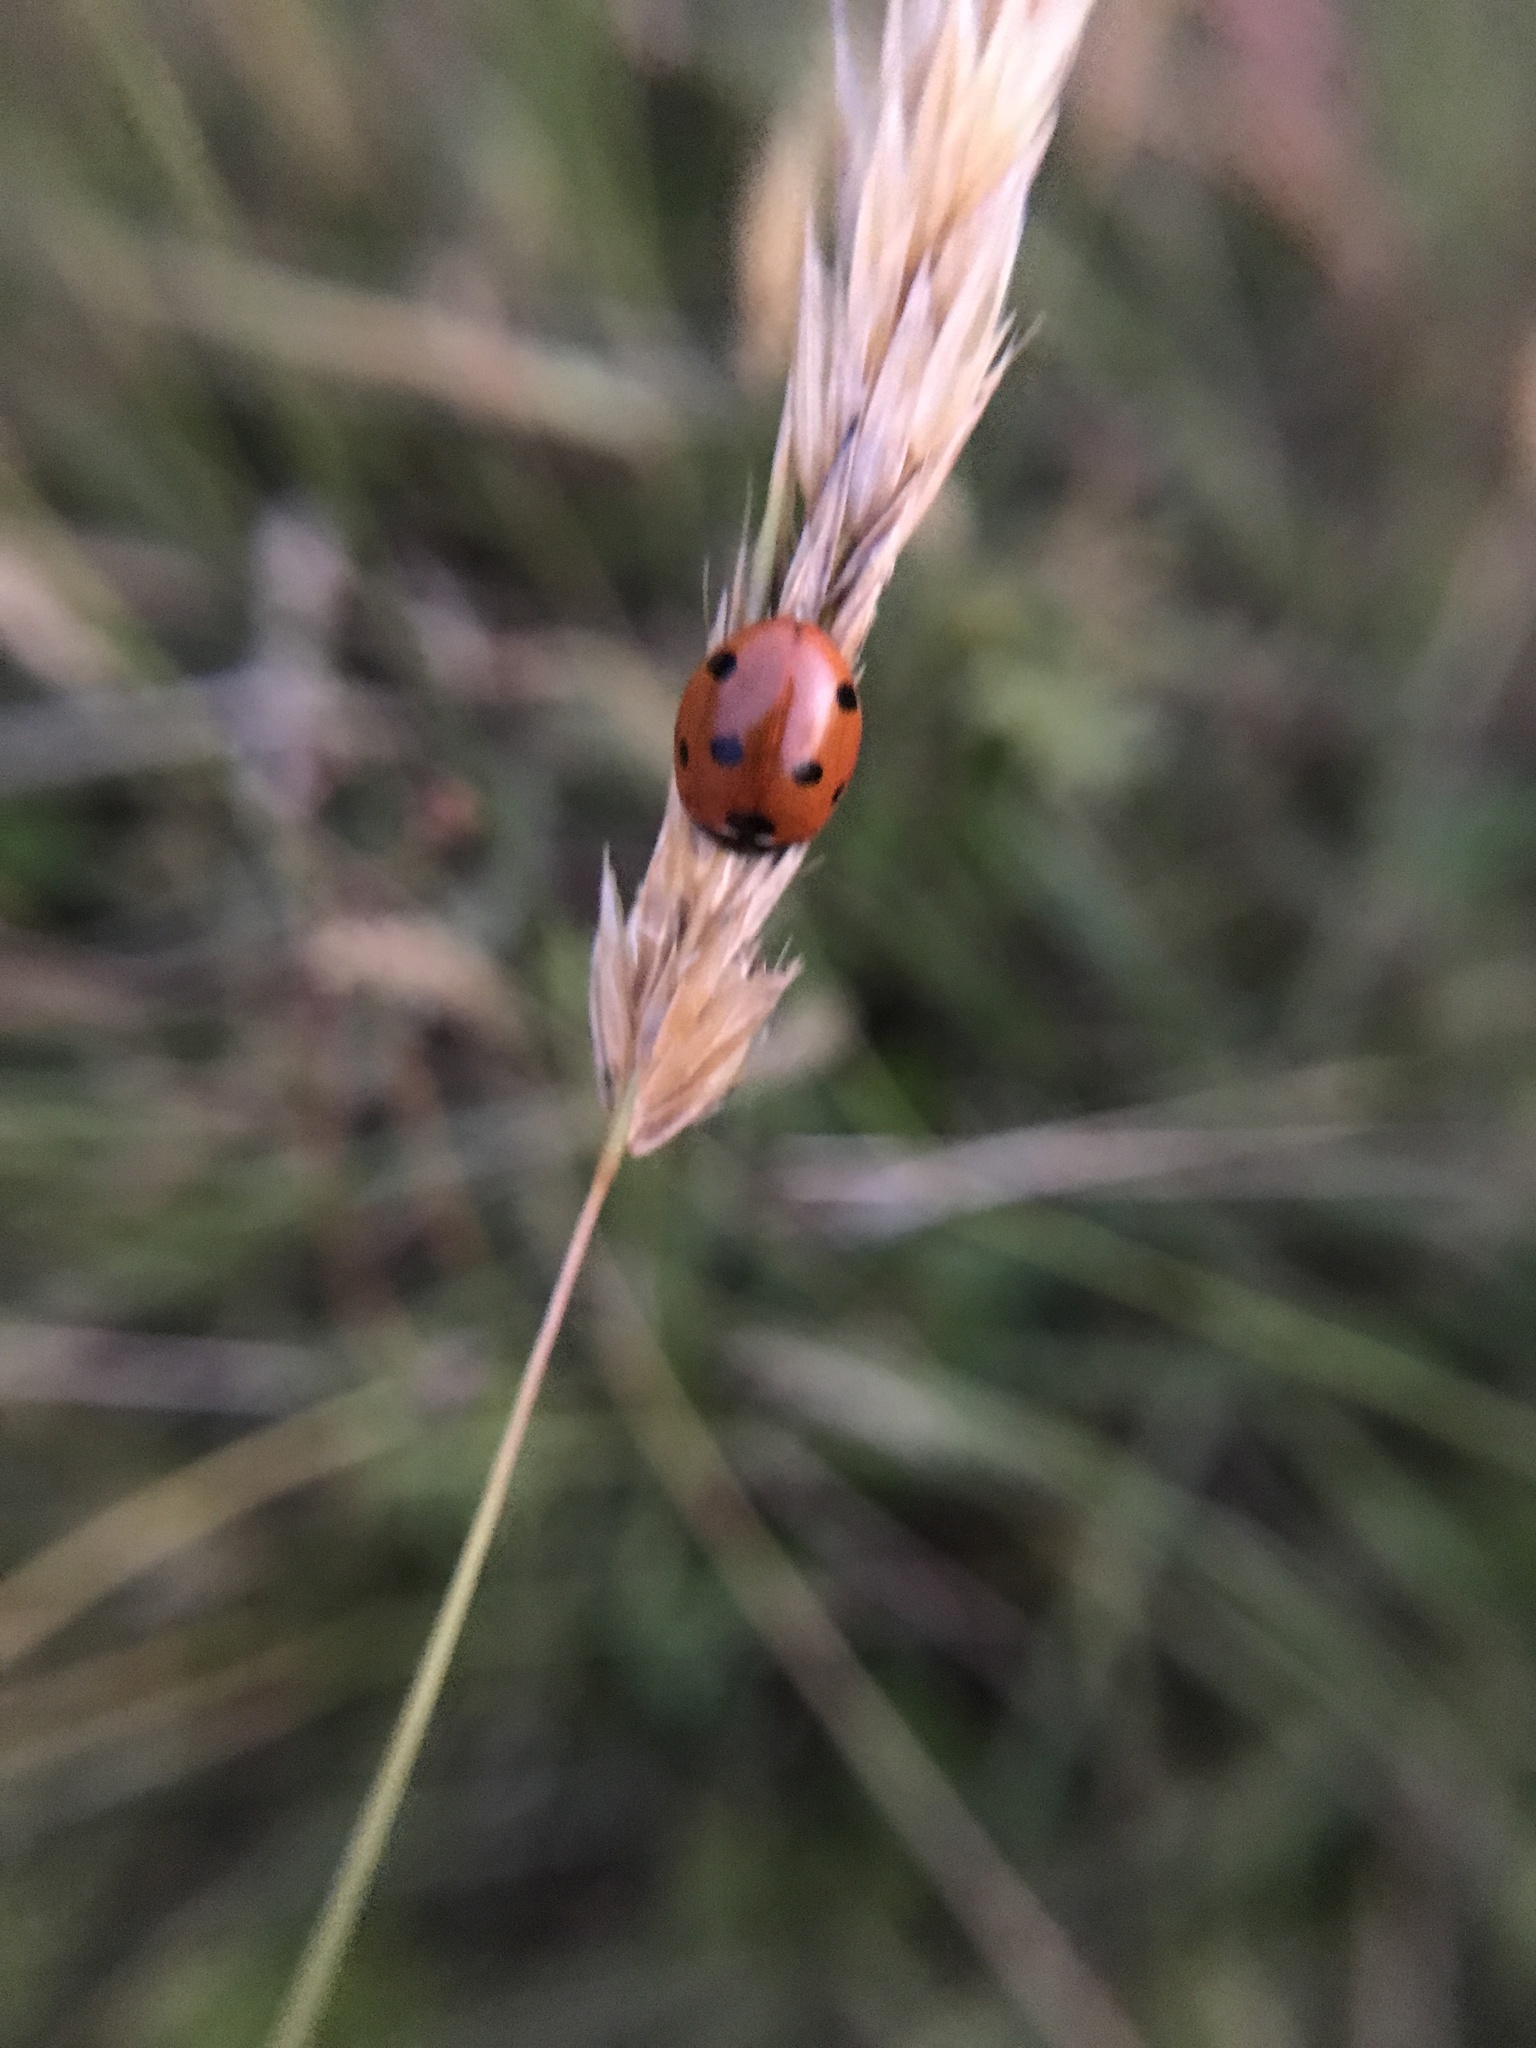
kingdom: Animalia
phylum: Arthropoda
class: Insecta
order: Coleoptera
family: Coccinellidae
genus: Coccinella
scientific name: Coccinella septempunctata
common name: Sevenspotted lady beetle
